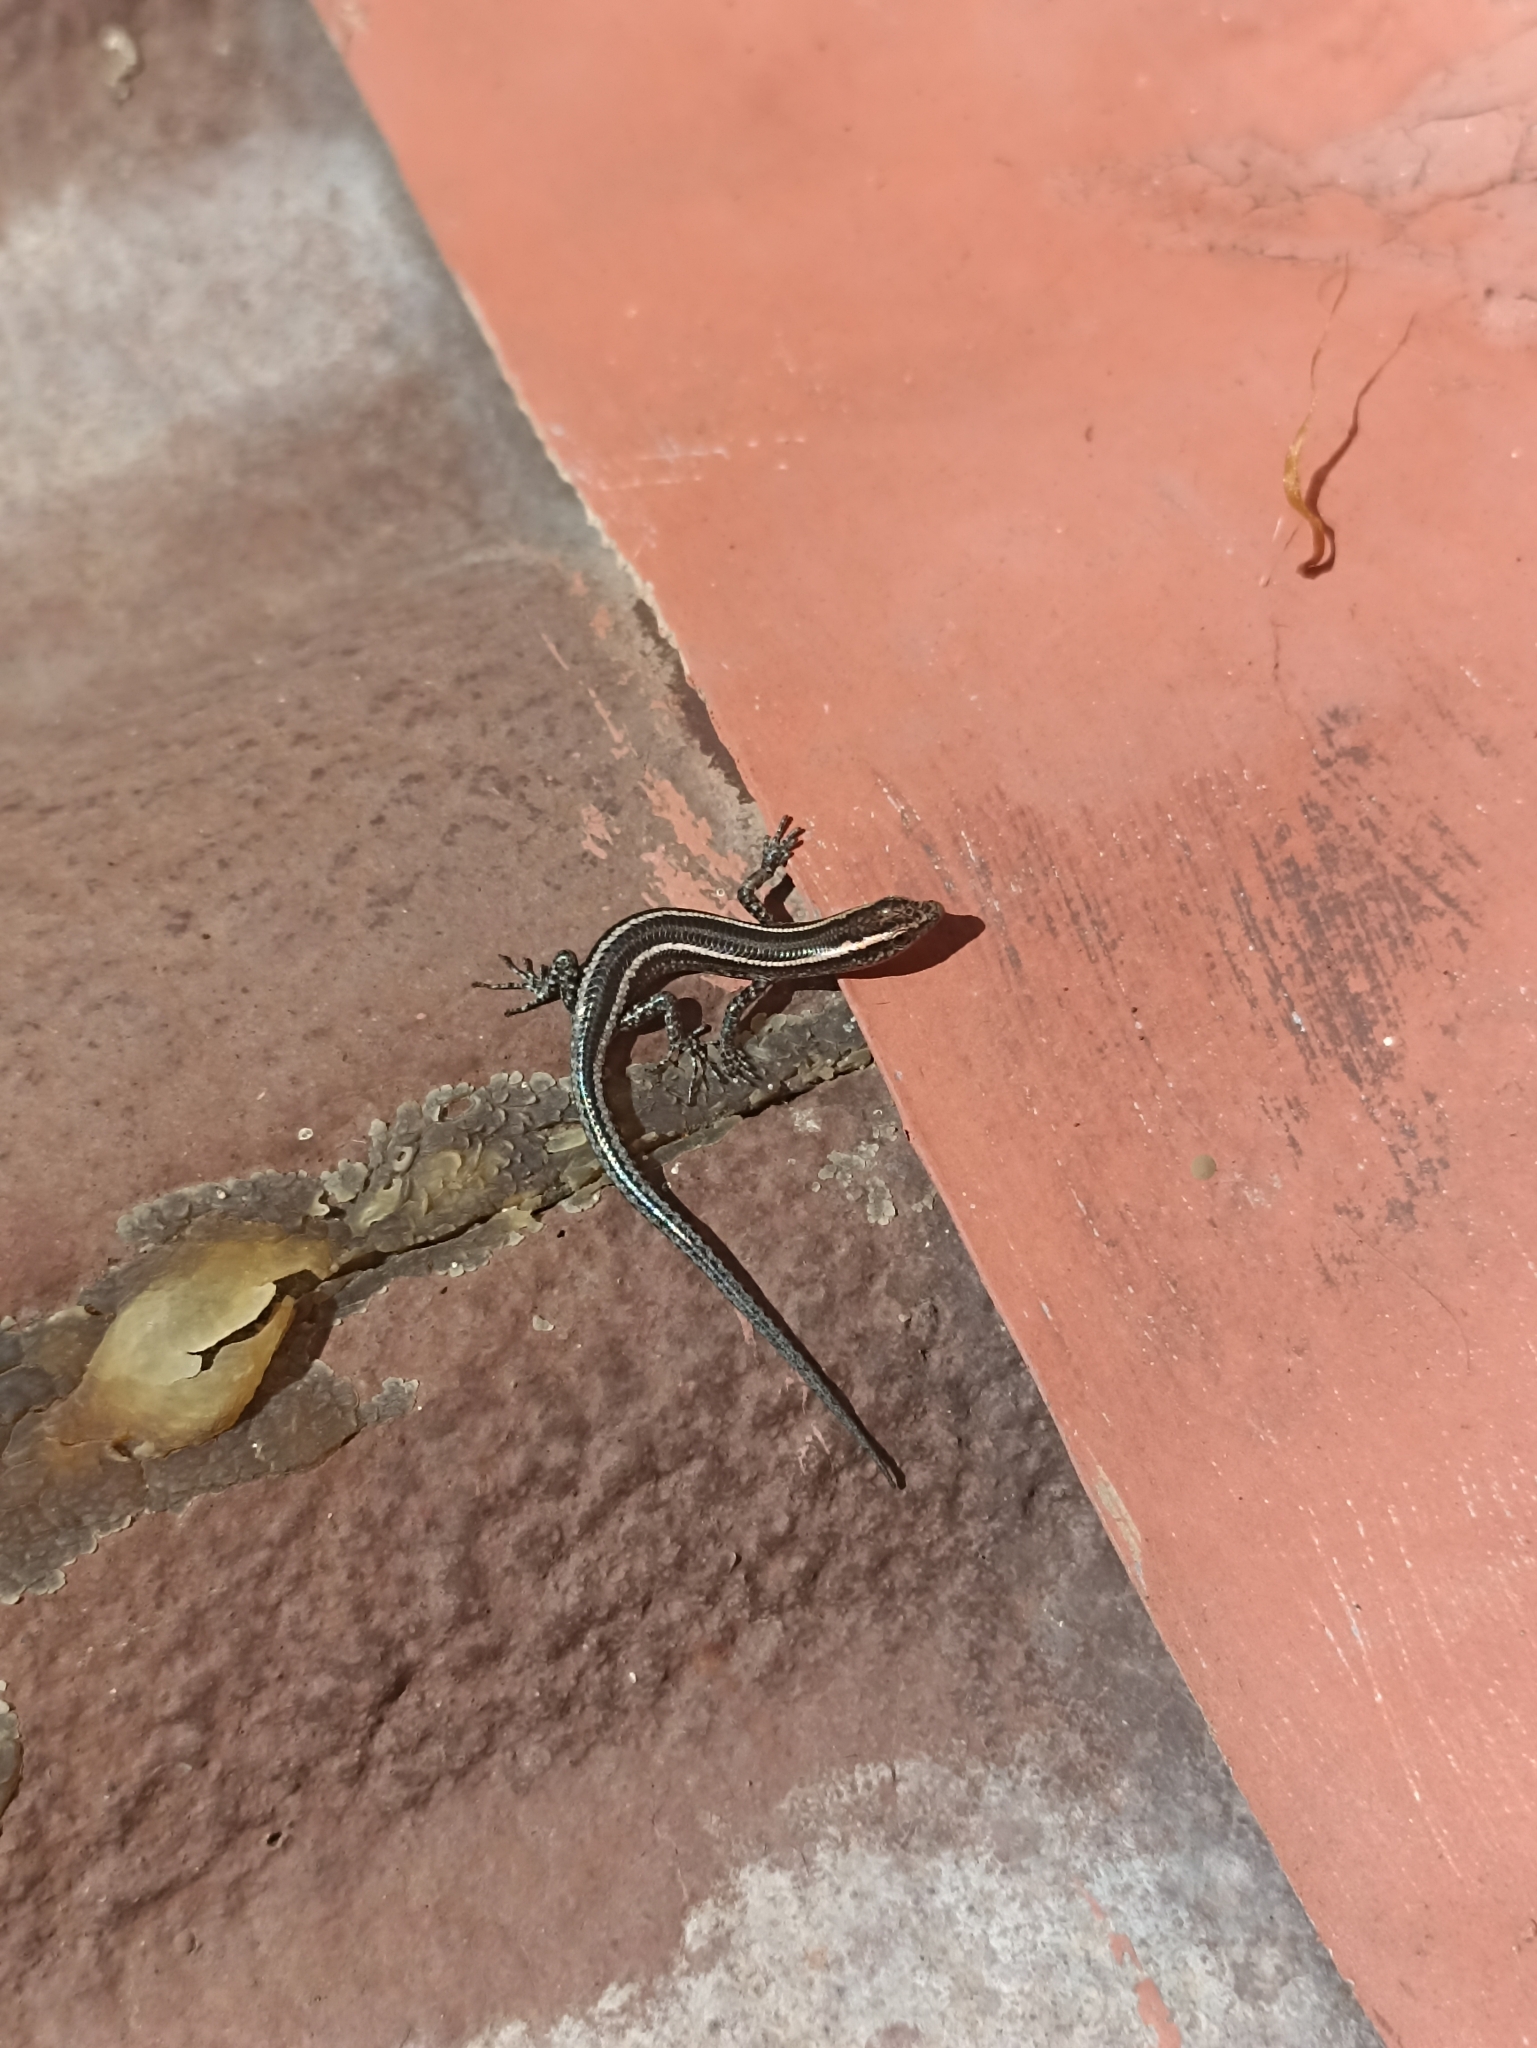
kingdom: Animalia
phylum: Chordata
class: Squamata
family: Scincidae
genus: Cryptoblepharus
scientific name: Cryptoblepharus pulcher
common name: Elegant snake-eyed skink
